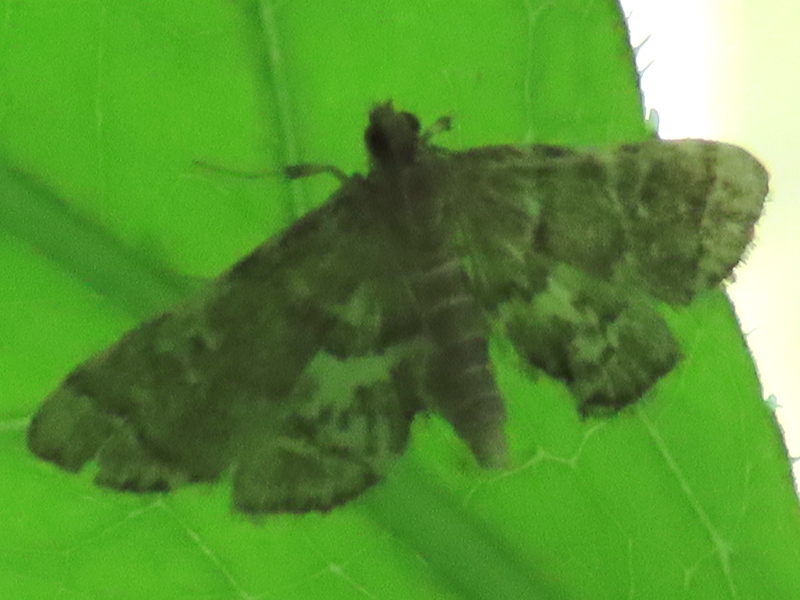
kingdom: Animalia
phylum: Arthropoda
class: Insecta
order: Lepidoptera
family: Crambidae
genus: Anageshna
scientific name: Anageshna primordialis
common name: Yellow-spotted webworm moth
